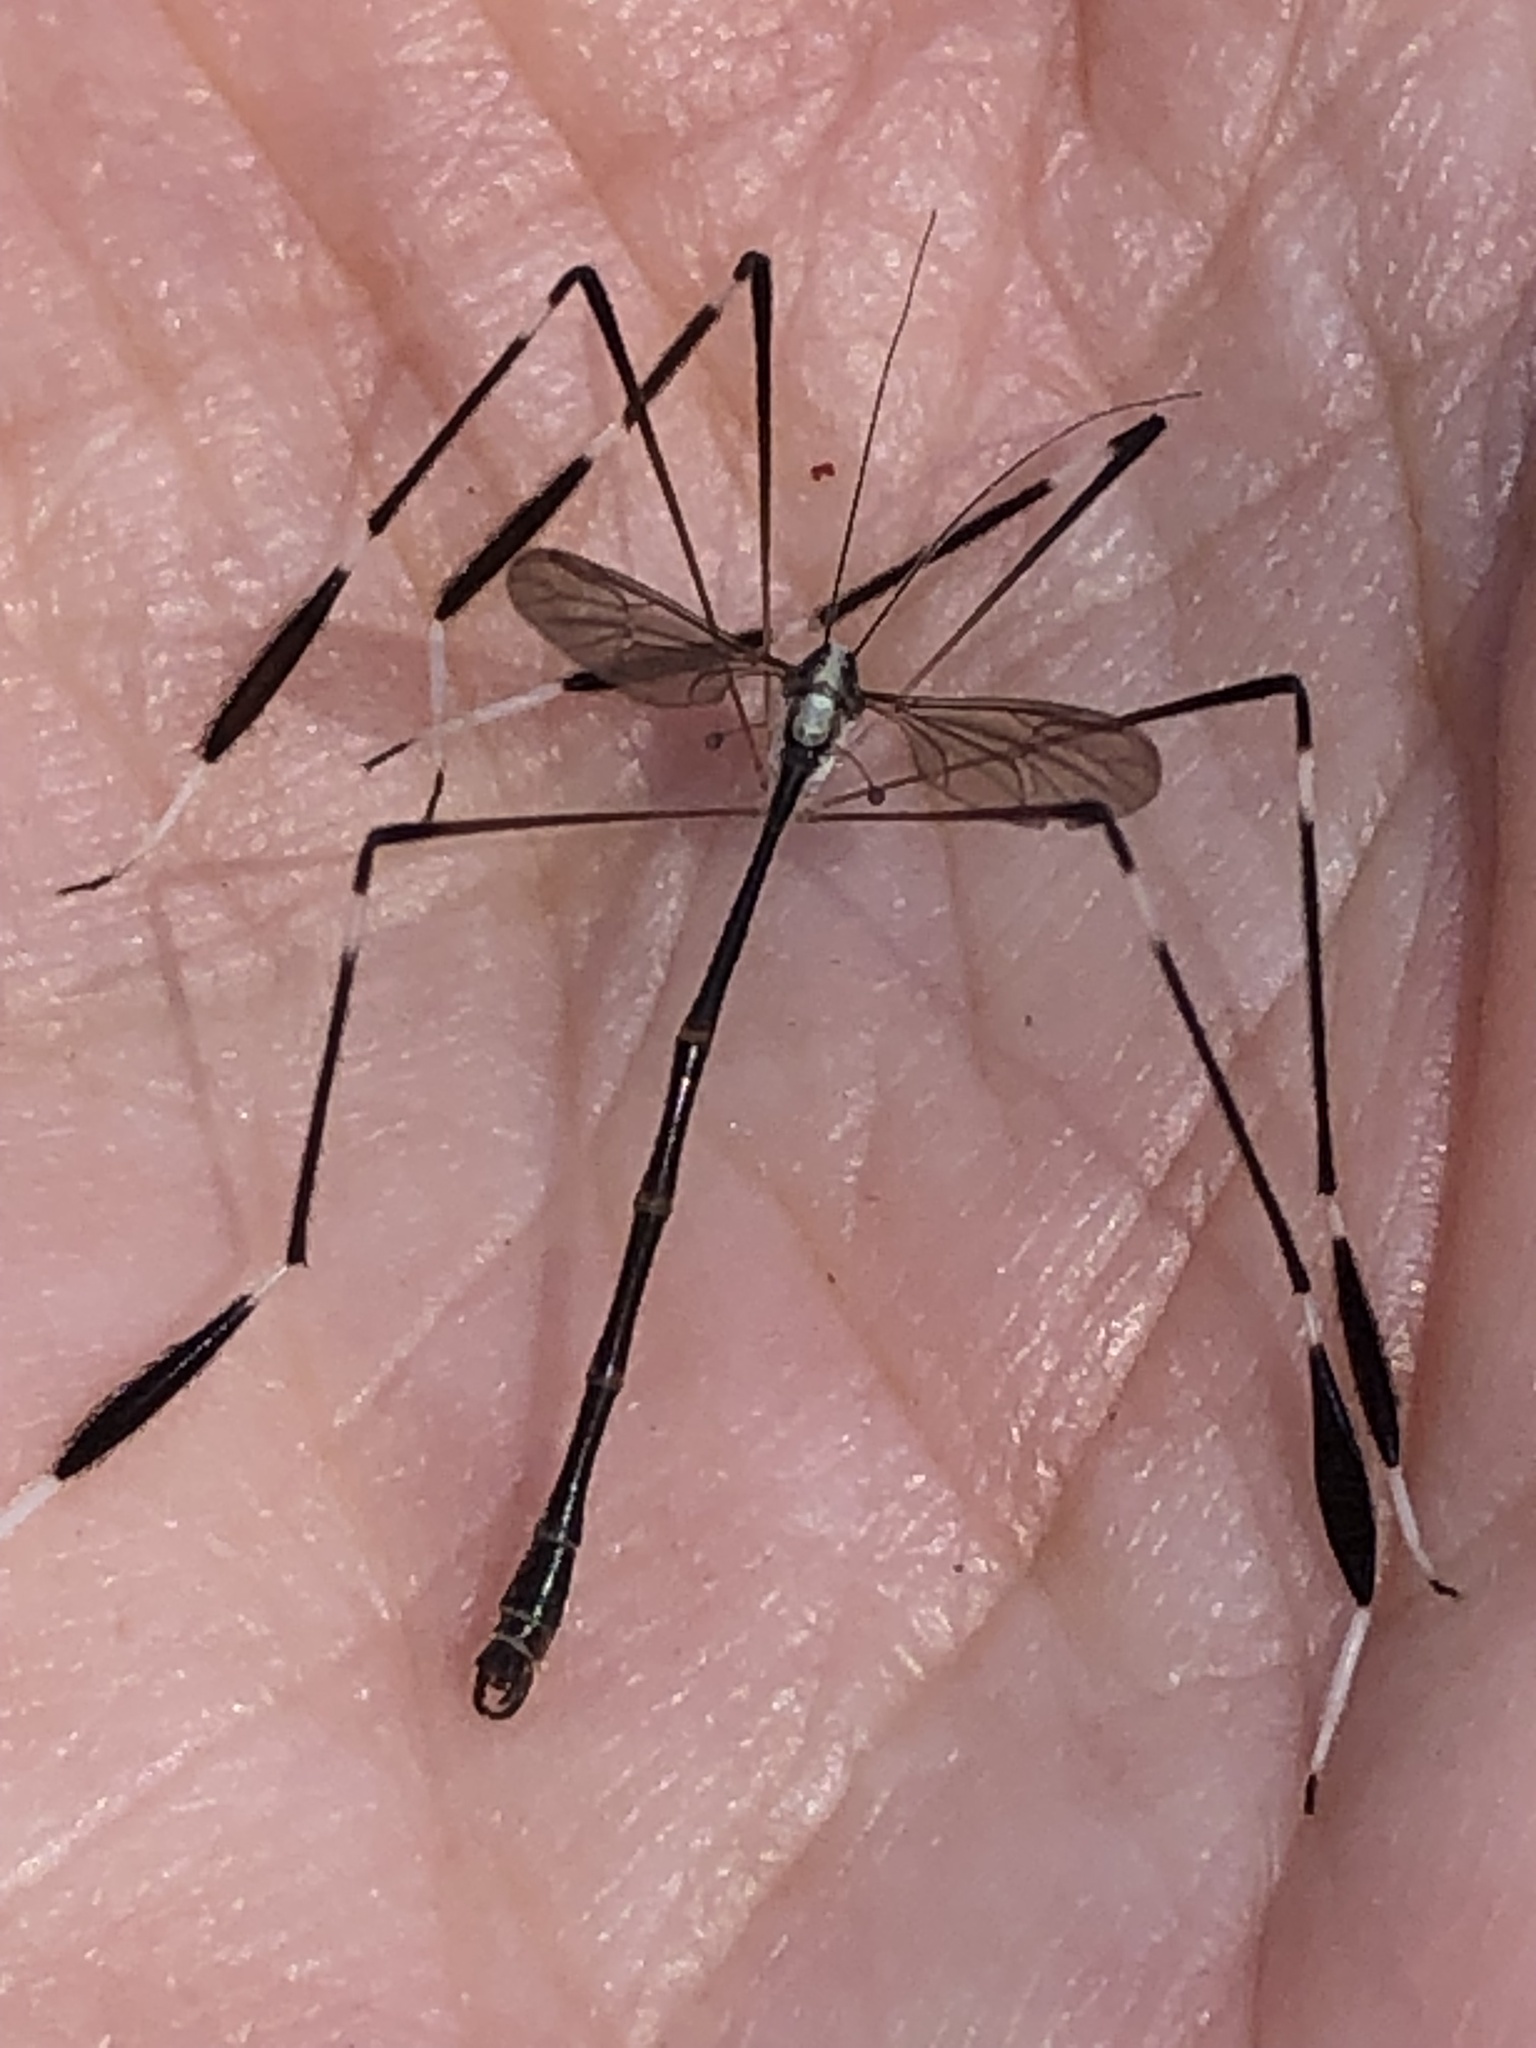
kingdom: Animalia
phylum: Arthropoda
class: Insecta
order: Diptera
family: Ptychopteridae
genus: Bittacomorpha
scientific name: Bittacomorpha clavipes
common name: Eastern phantom crane fly
